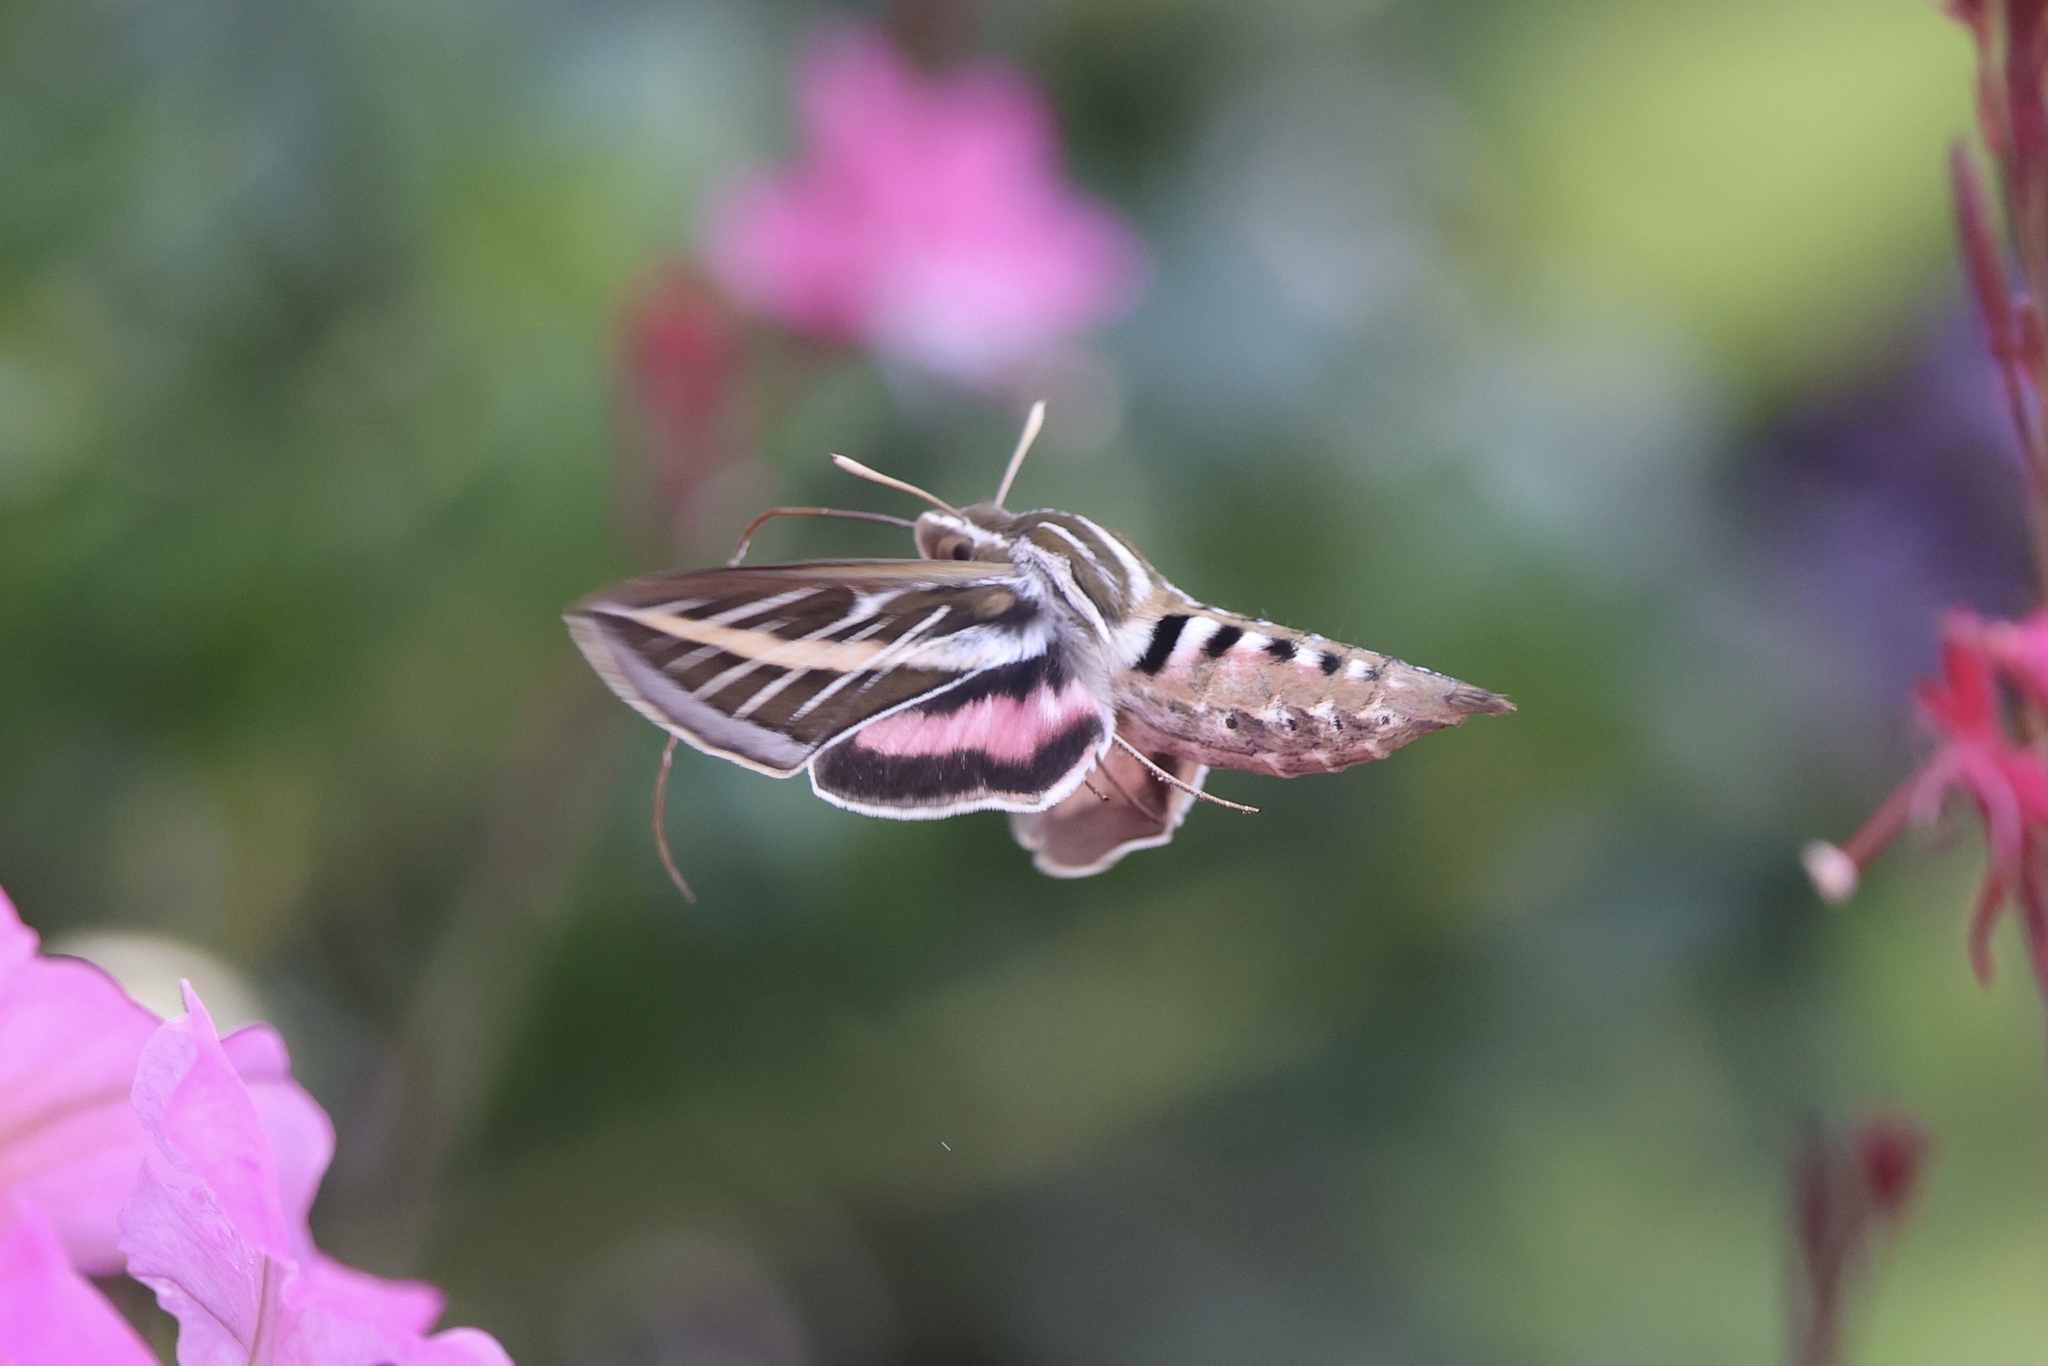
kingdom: Animalia
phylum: Arthropoda
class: Insecta
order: Lepidoptera
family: Sphingidae
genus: Hyles
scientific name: Hyles lineata
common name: White-lined sphinx
